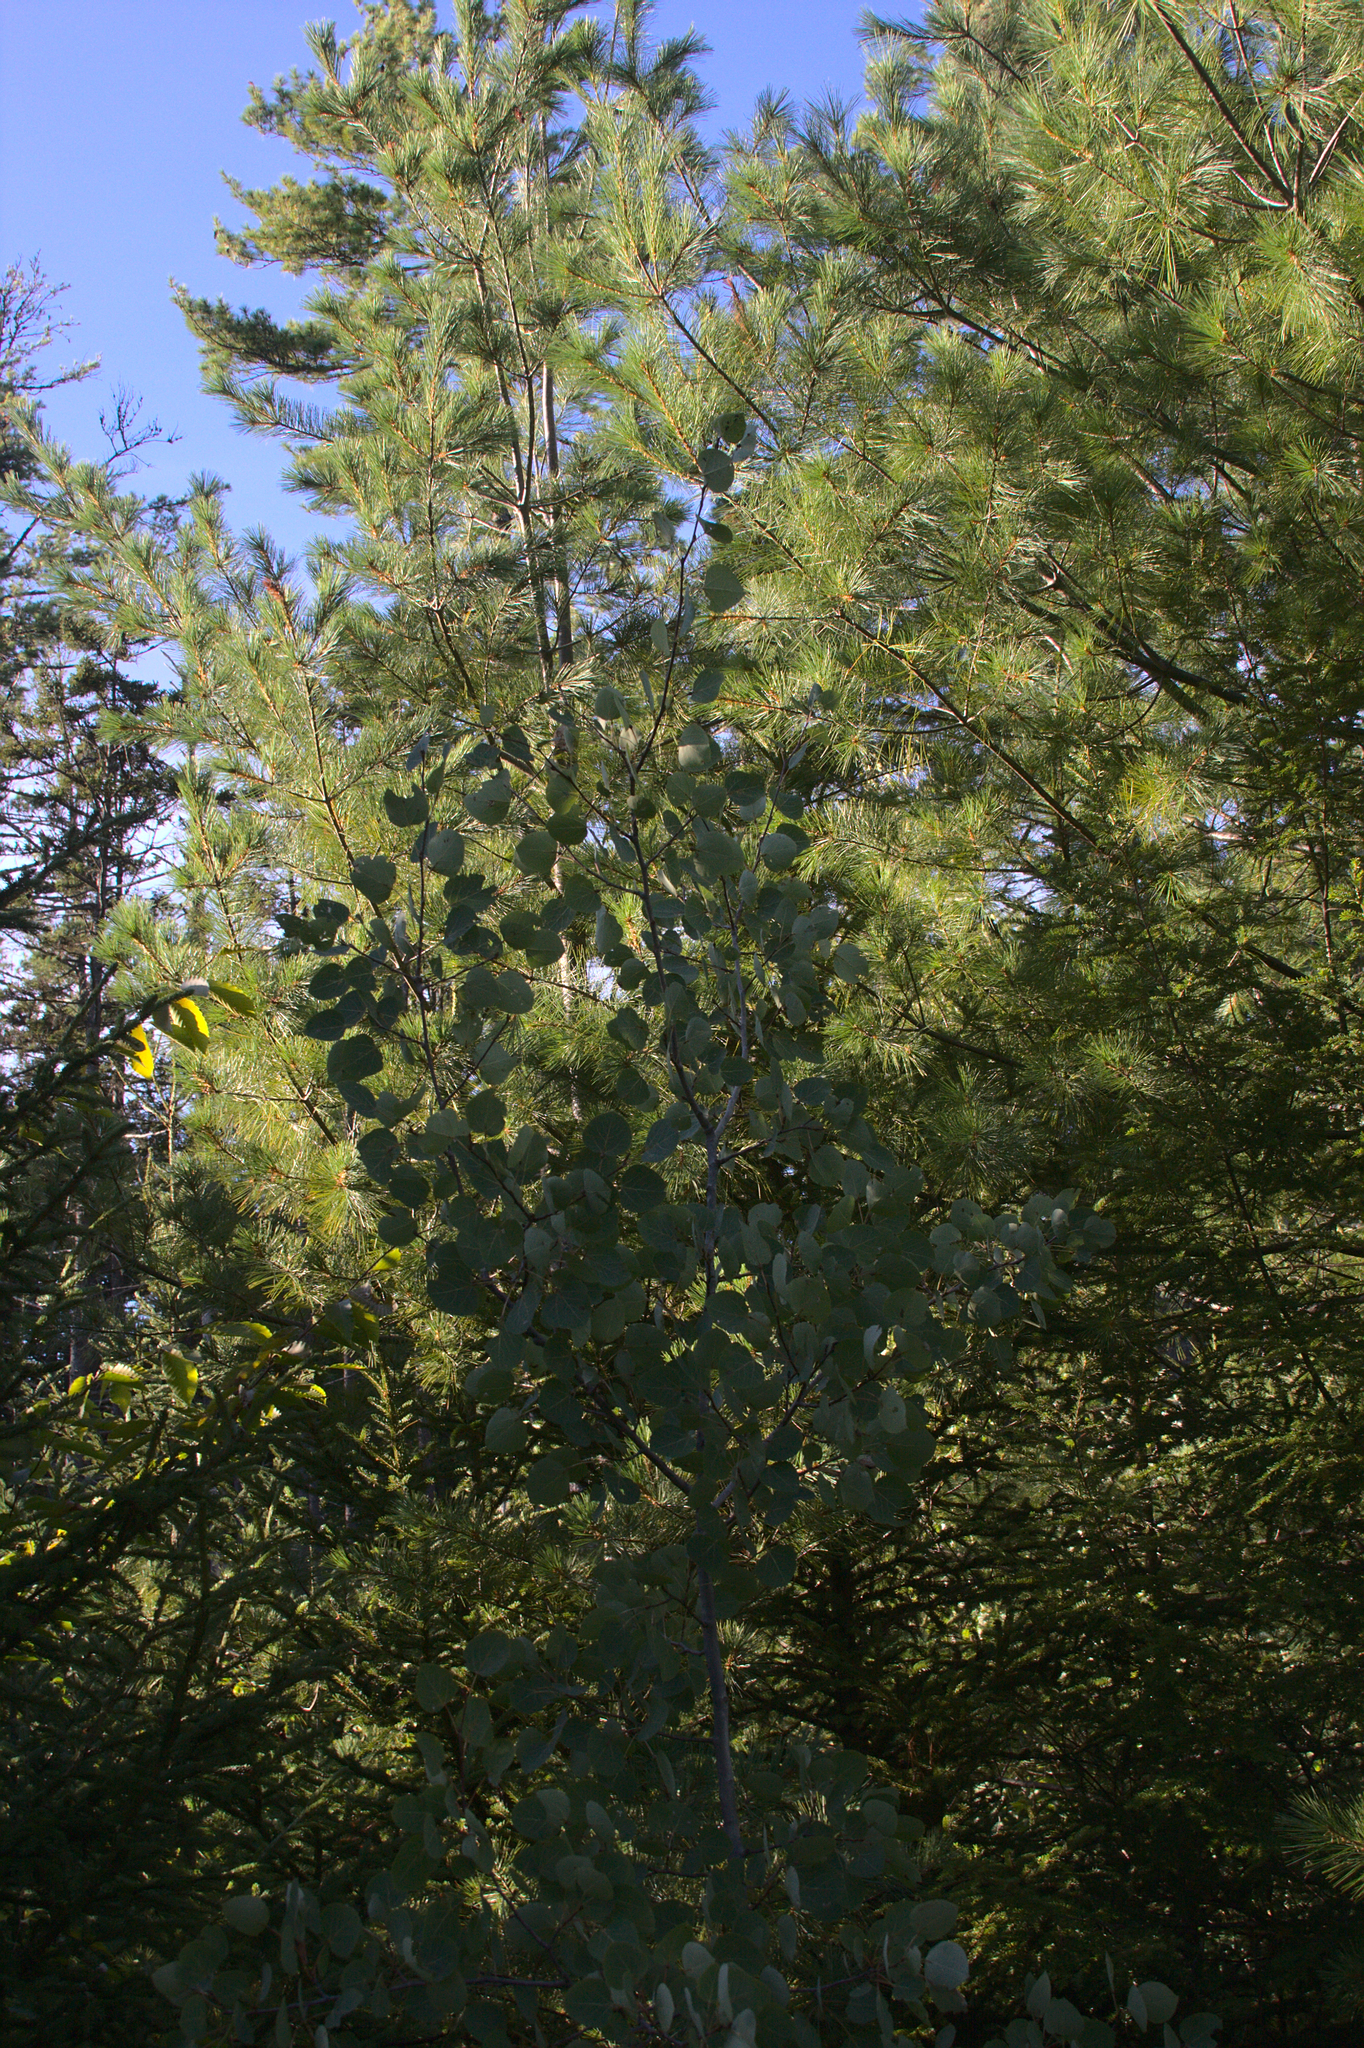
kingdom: Plantae
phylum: Tracheophyta
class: Magnoliopsida
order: Malpighiales
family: Salicaceae
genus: Populus
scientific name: Populus tremuloides
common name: Quaking aspen
